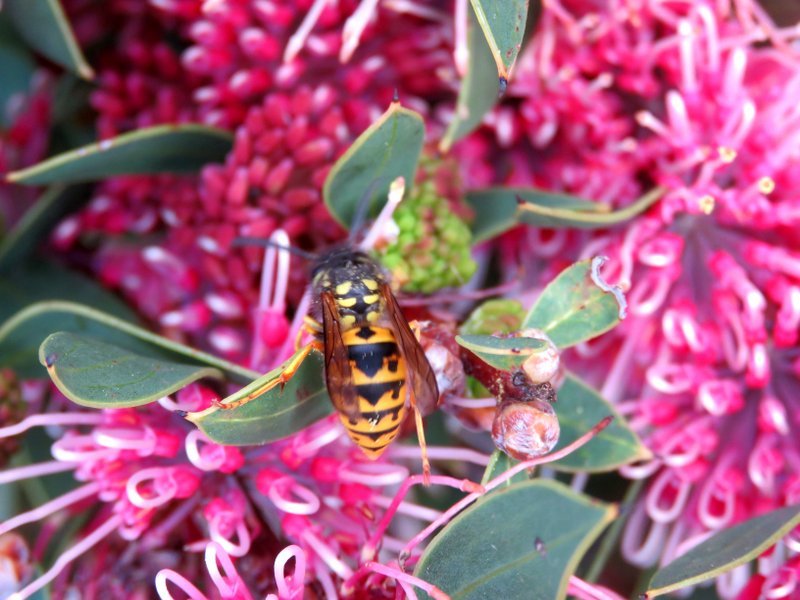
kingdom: Animalia
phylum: Arthropoda
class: Insecta
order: Hymenoptera
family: Vespidae
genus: Vespula
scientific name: Vespula germanica
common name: German wasp
